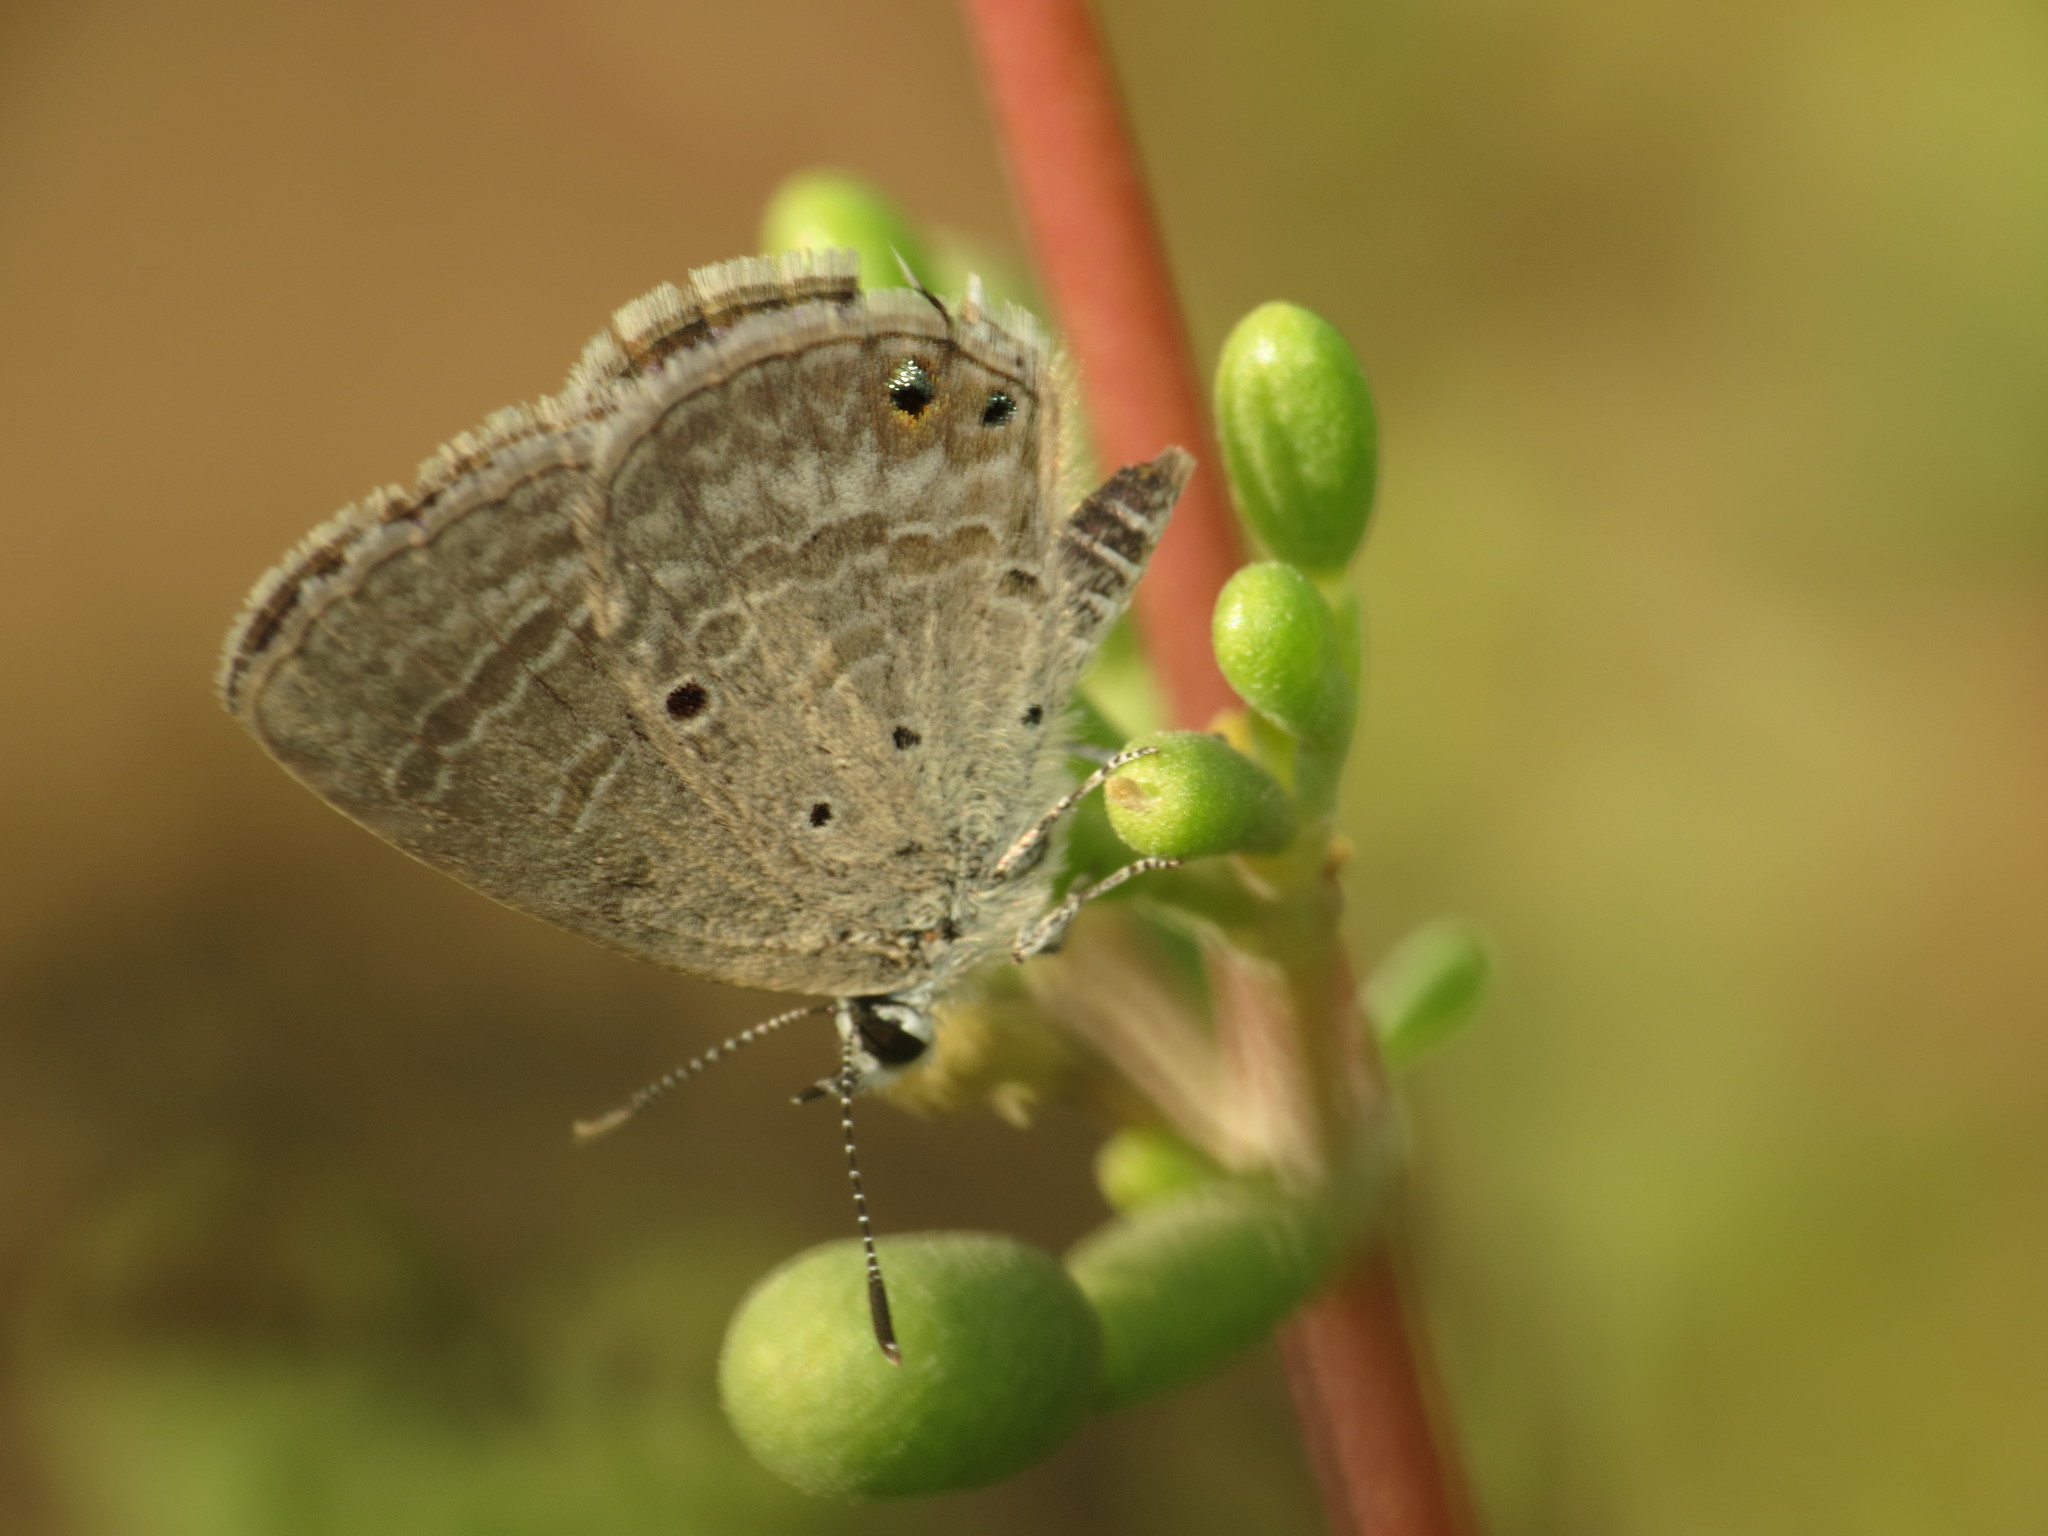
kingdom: Animalia
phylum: Arthropoda
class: Insecta
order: Lepidoptera
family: Lycaenidae
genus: Chilades
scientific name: Chilades parrhasius
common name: Small cupid
